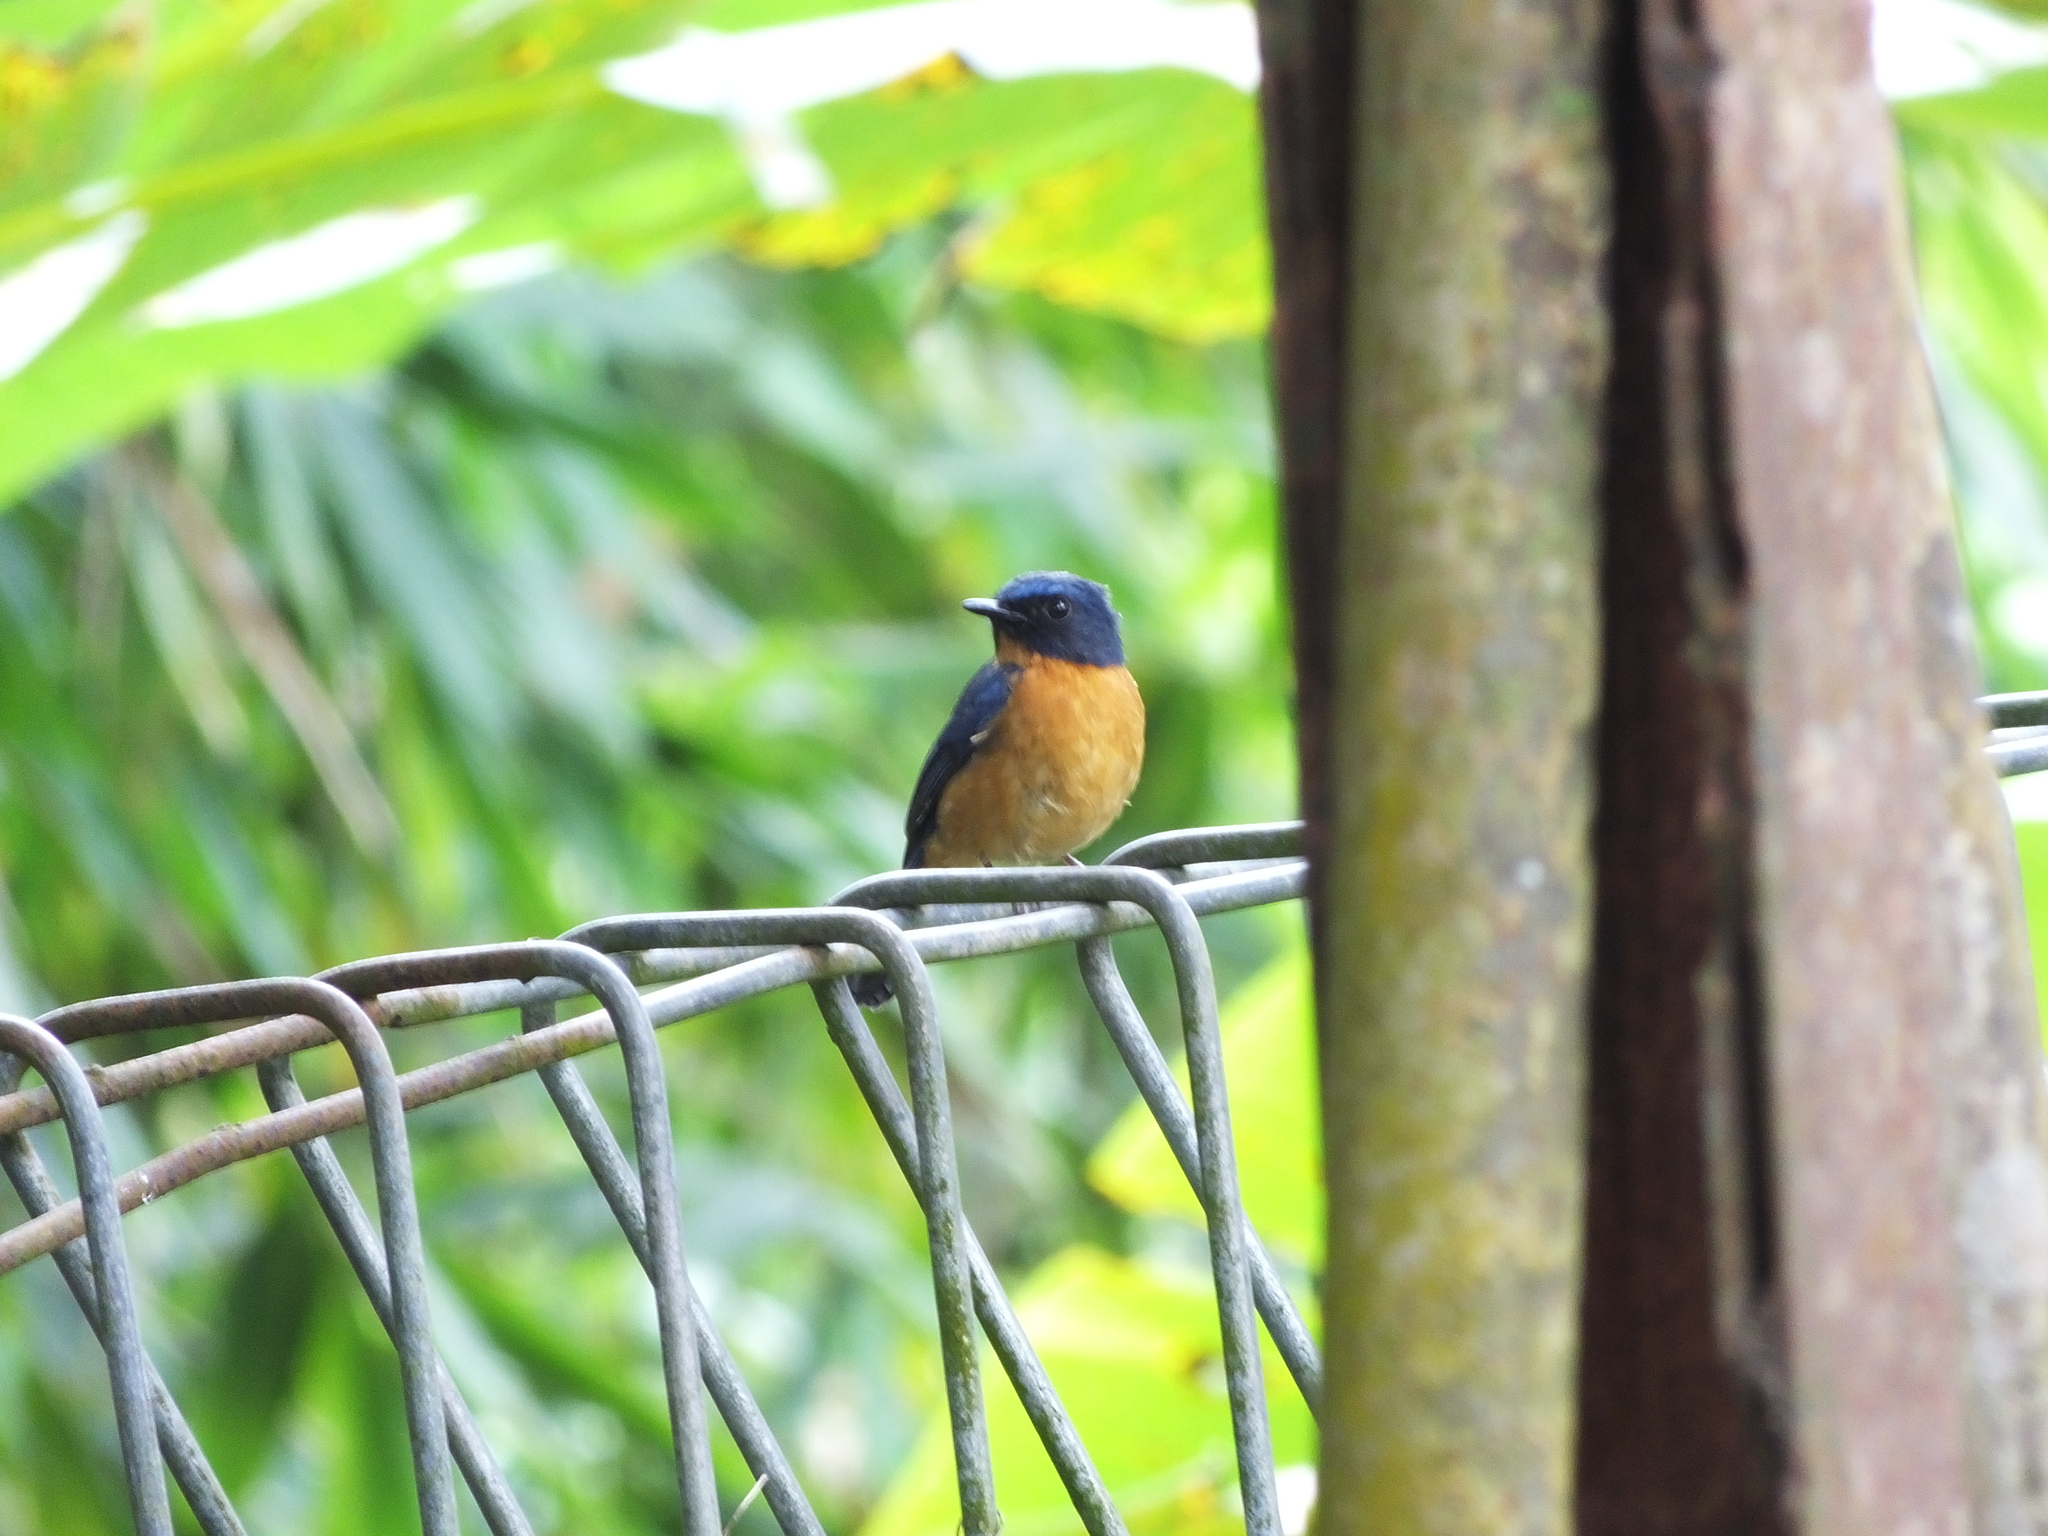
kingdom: Animalia
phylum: Chordata
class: Aves
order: Passeriformes
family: Muscicapidae
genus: Cyornis
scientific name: Cyornis omissus
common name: Sulawesi blue flycatcher
